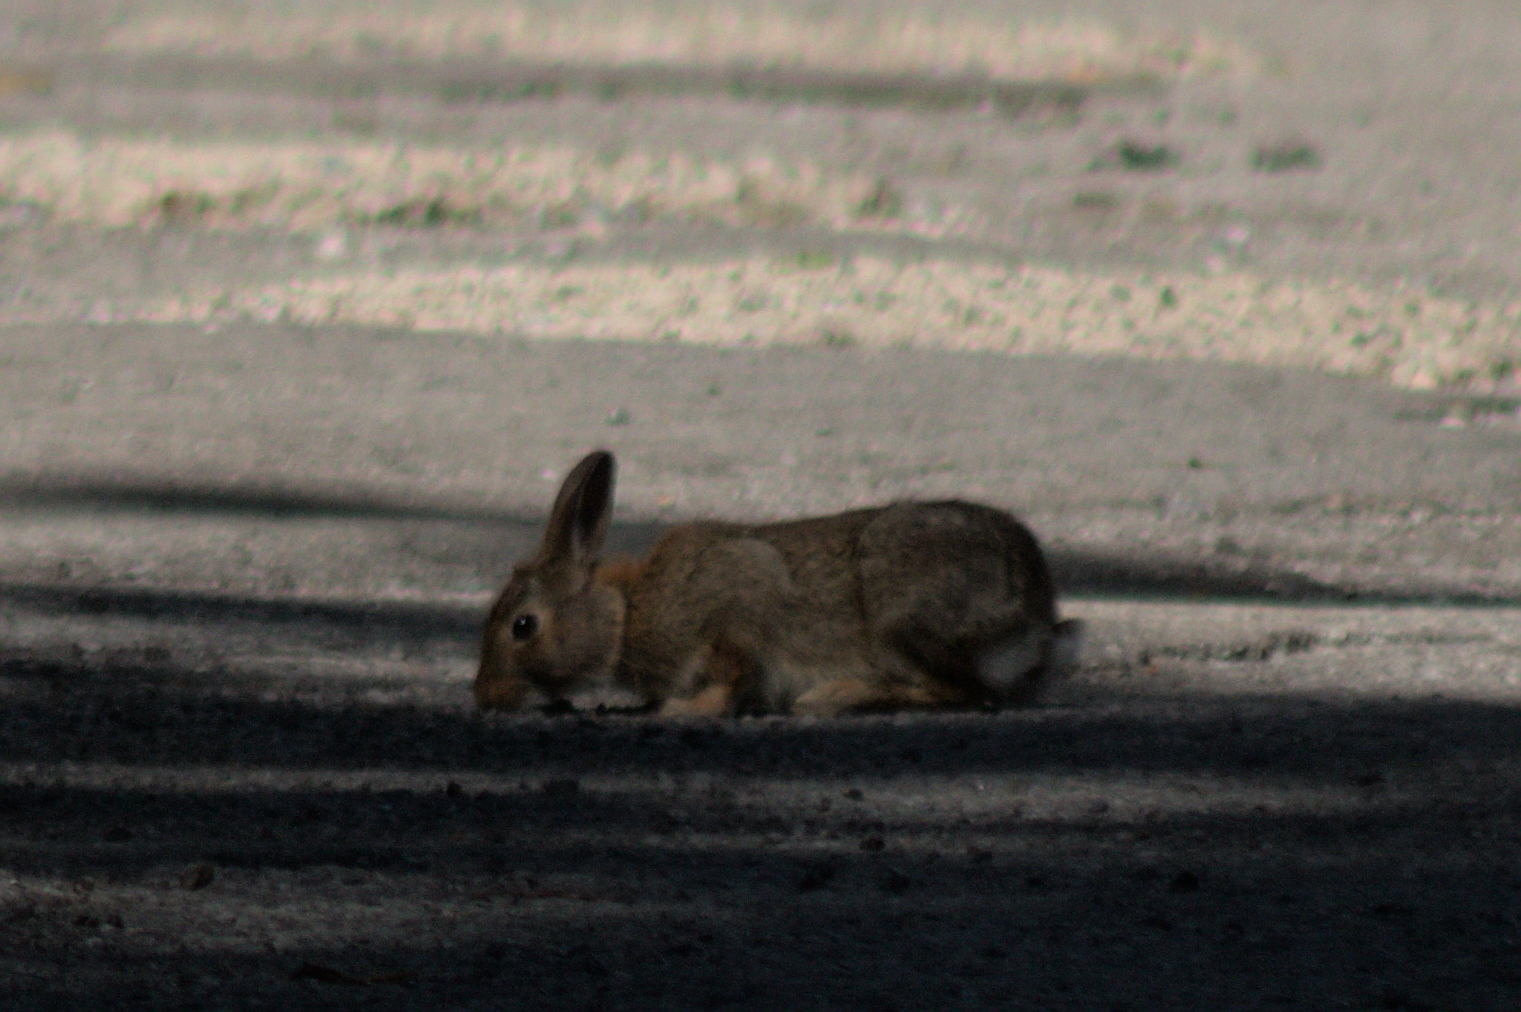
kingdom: Animalia
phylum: Chordata
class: Mammalia
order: Lagomorpha
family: Leporidae
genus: Sylvilagus
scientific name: Sylvilagus floridanus
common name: Eastern cottontail
